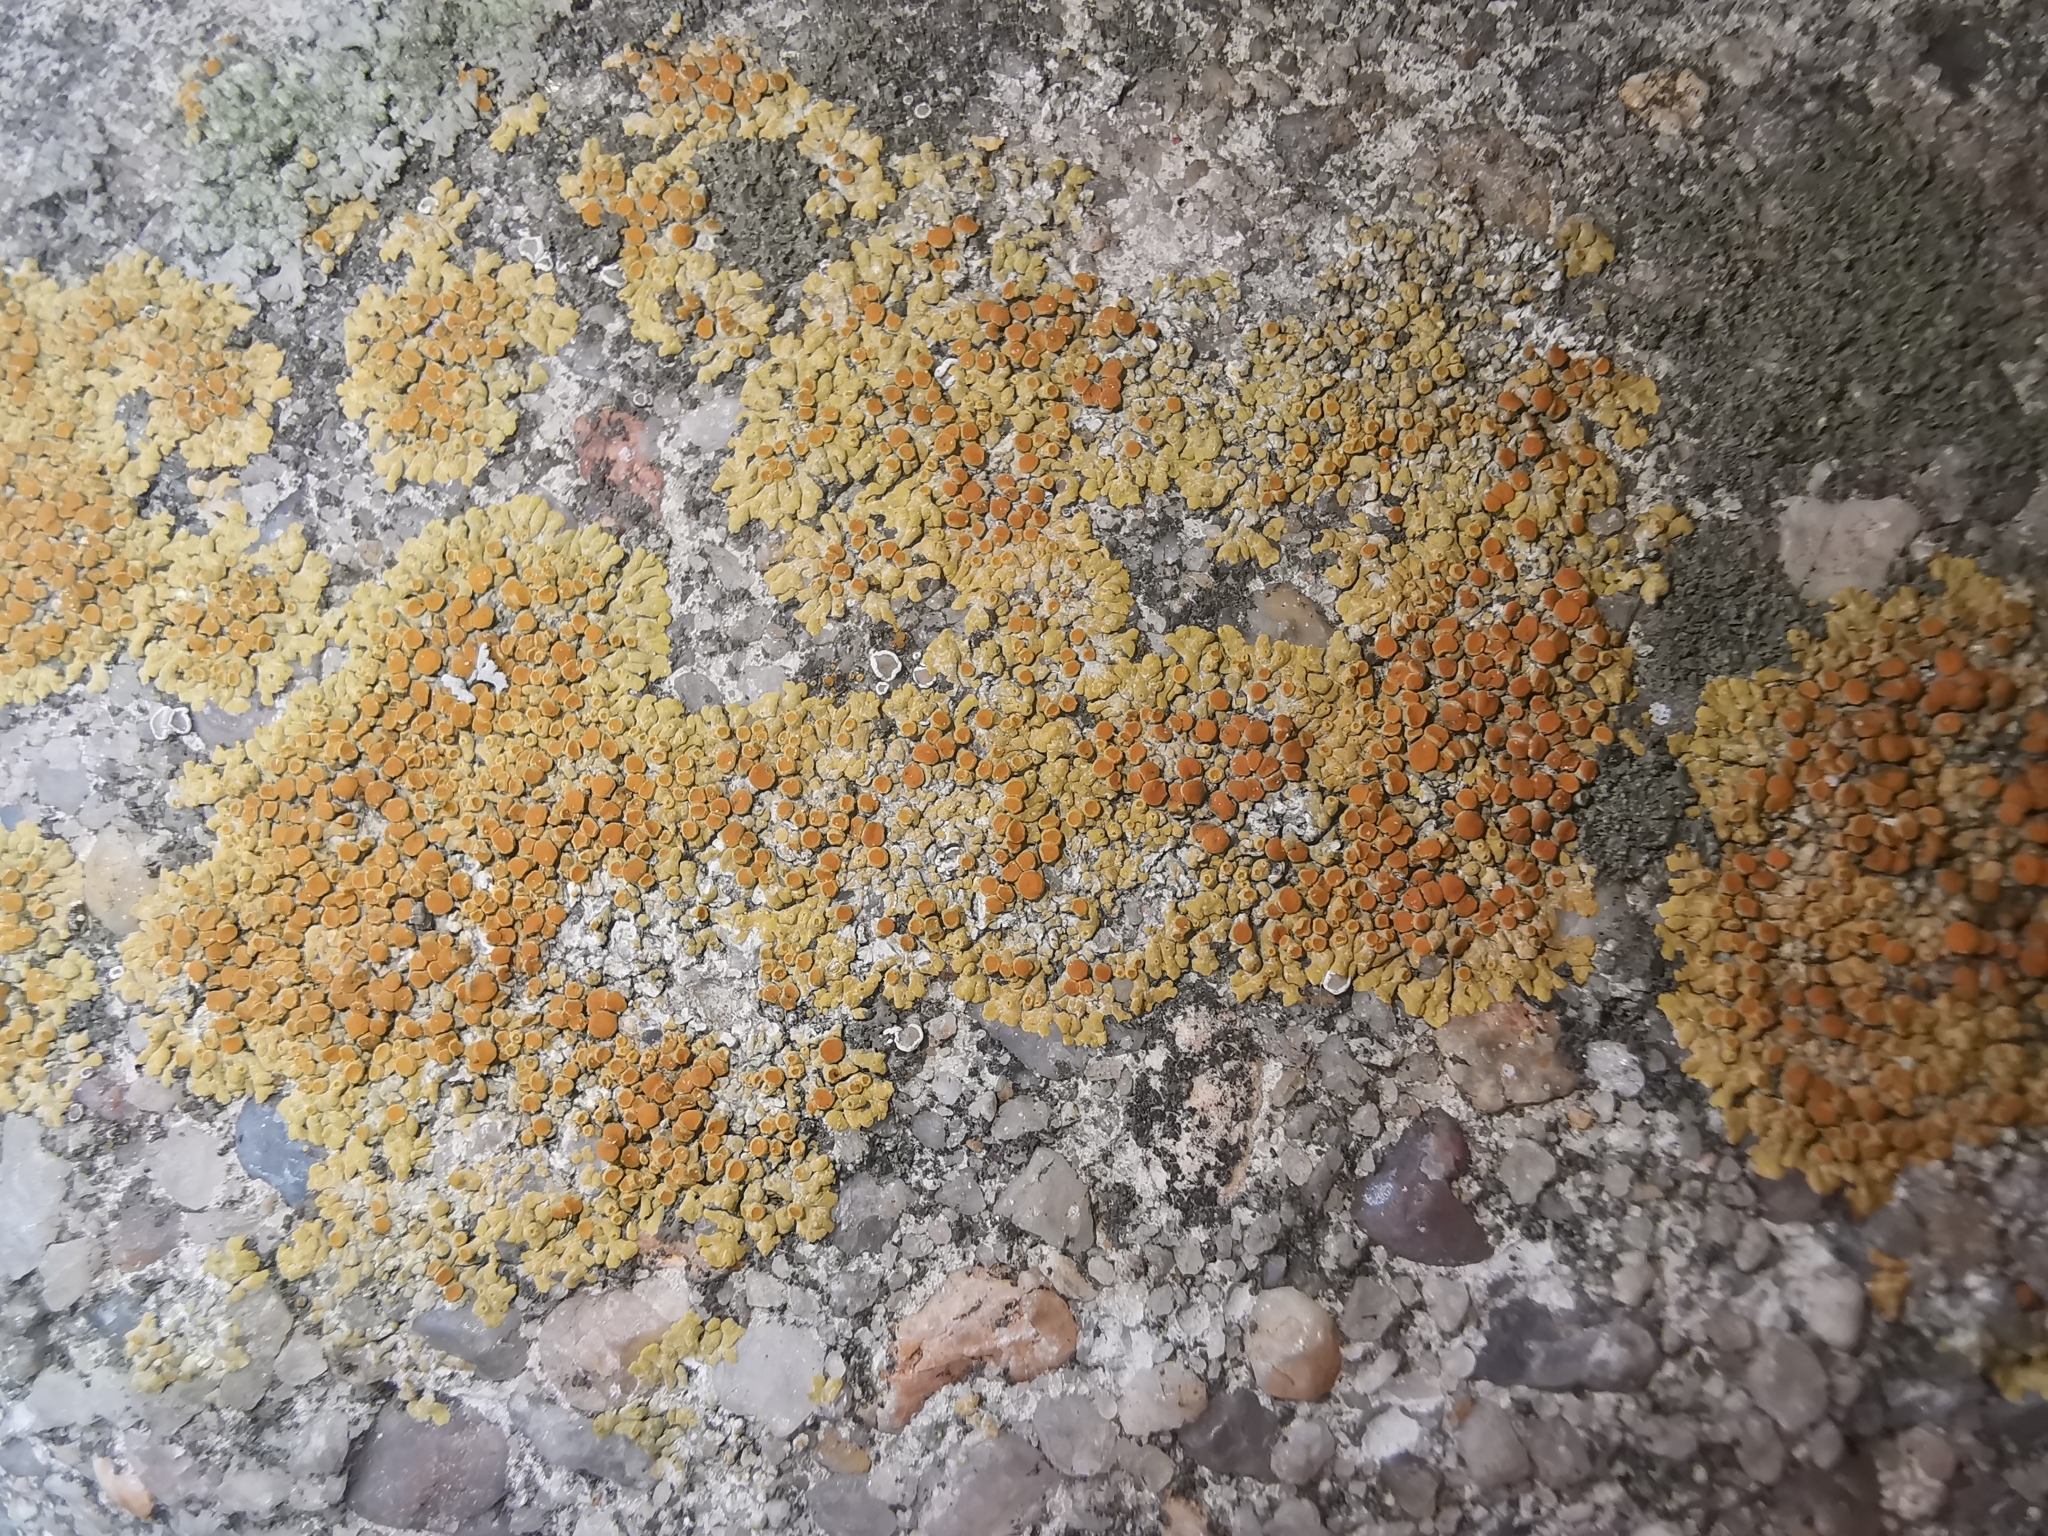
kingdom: Fungi
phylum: Ascomycota
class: Lecanoromycetes
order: Teloschistales
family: Teloschistaceae
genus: Calogaya
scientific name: Calogaya saxicola
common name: Rock jewel lichen
